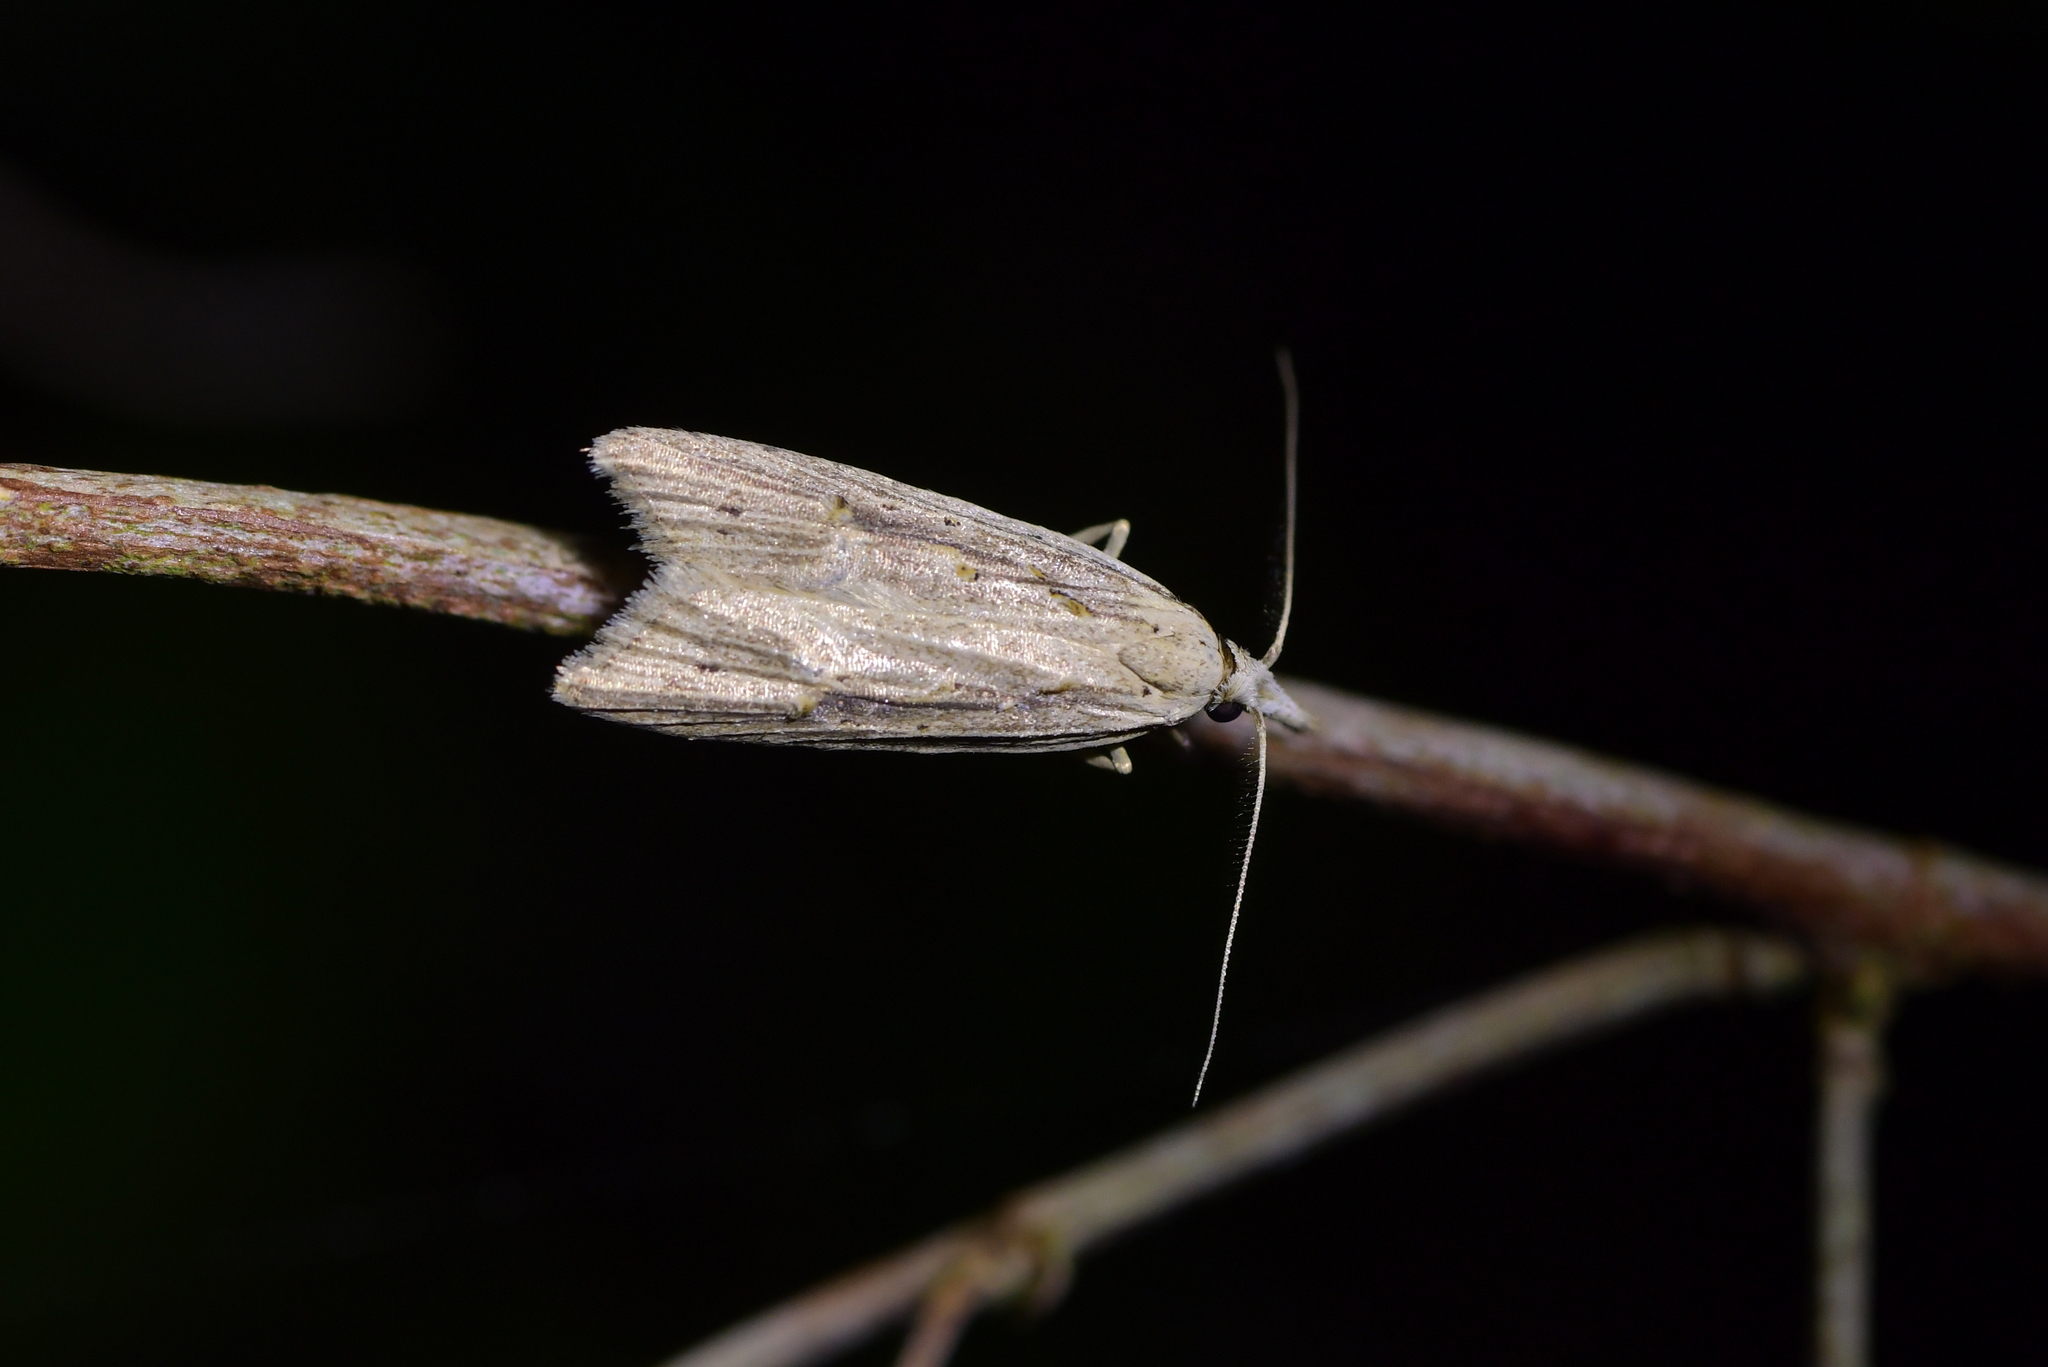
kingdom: Animalia
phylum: Arthropoda
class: Insecta
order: Lepidoptera
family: Carposinidae
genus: Carposina
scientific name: Carposina Heterocrossa exochana
